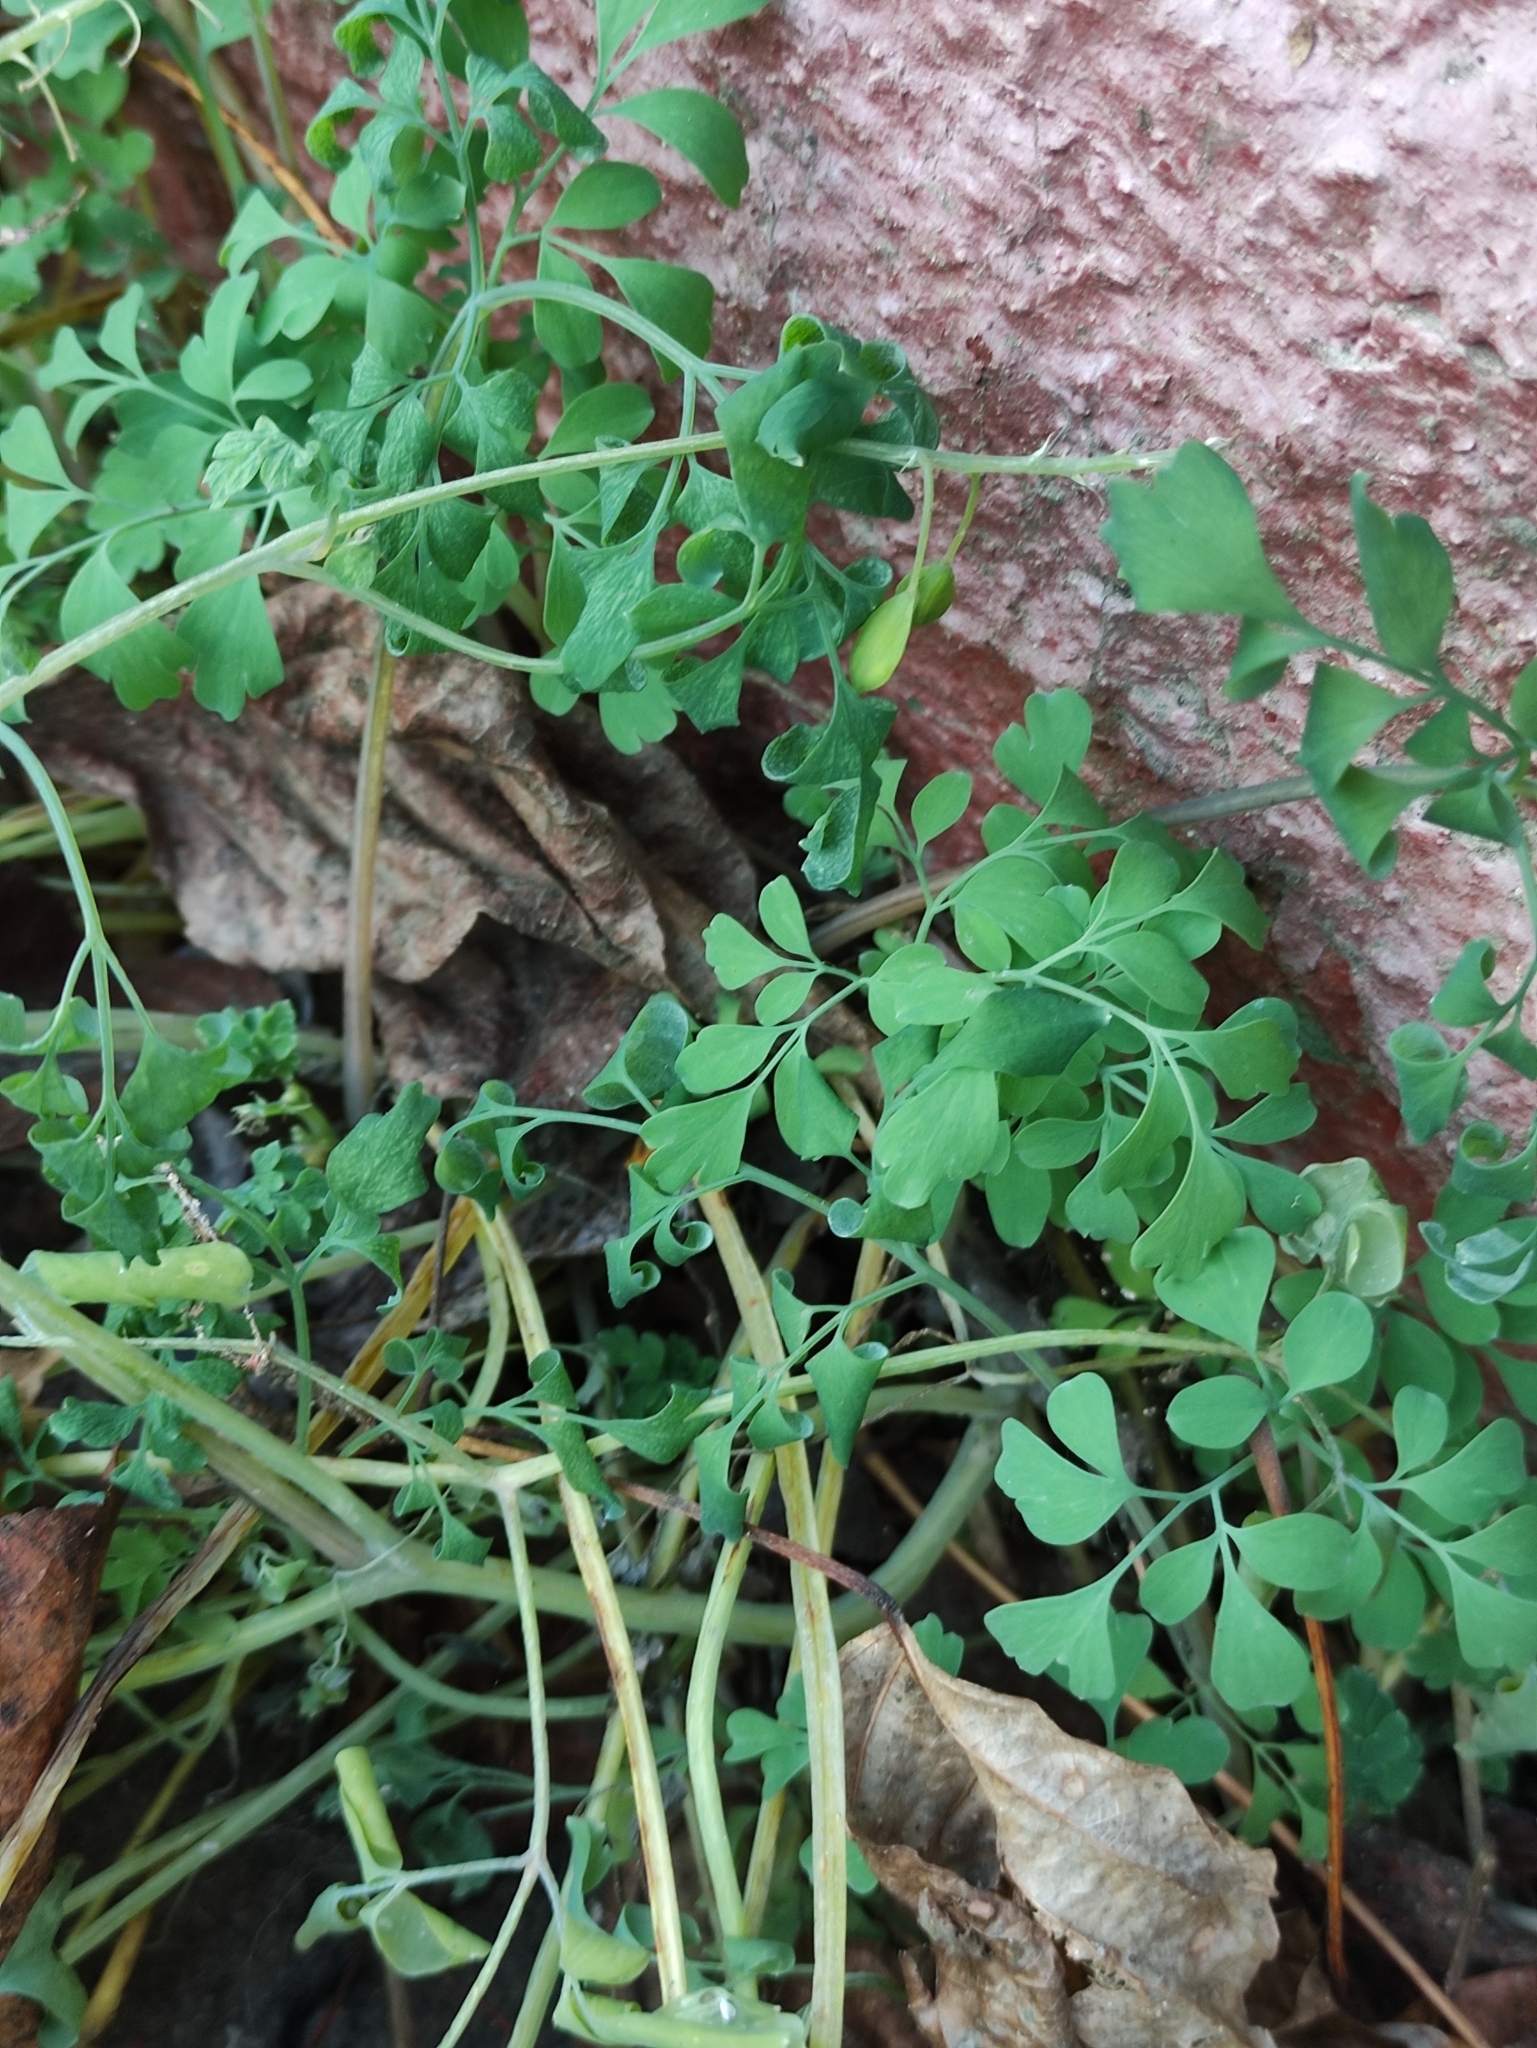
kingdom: Plantae
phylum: Tracheophyta
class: Magnoliopsida
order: Ranunculales
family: Papaveraceae
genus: Pseudofumaria
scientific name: Pseudofumaria lutea
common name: Yellow corydalis
